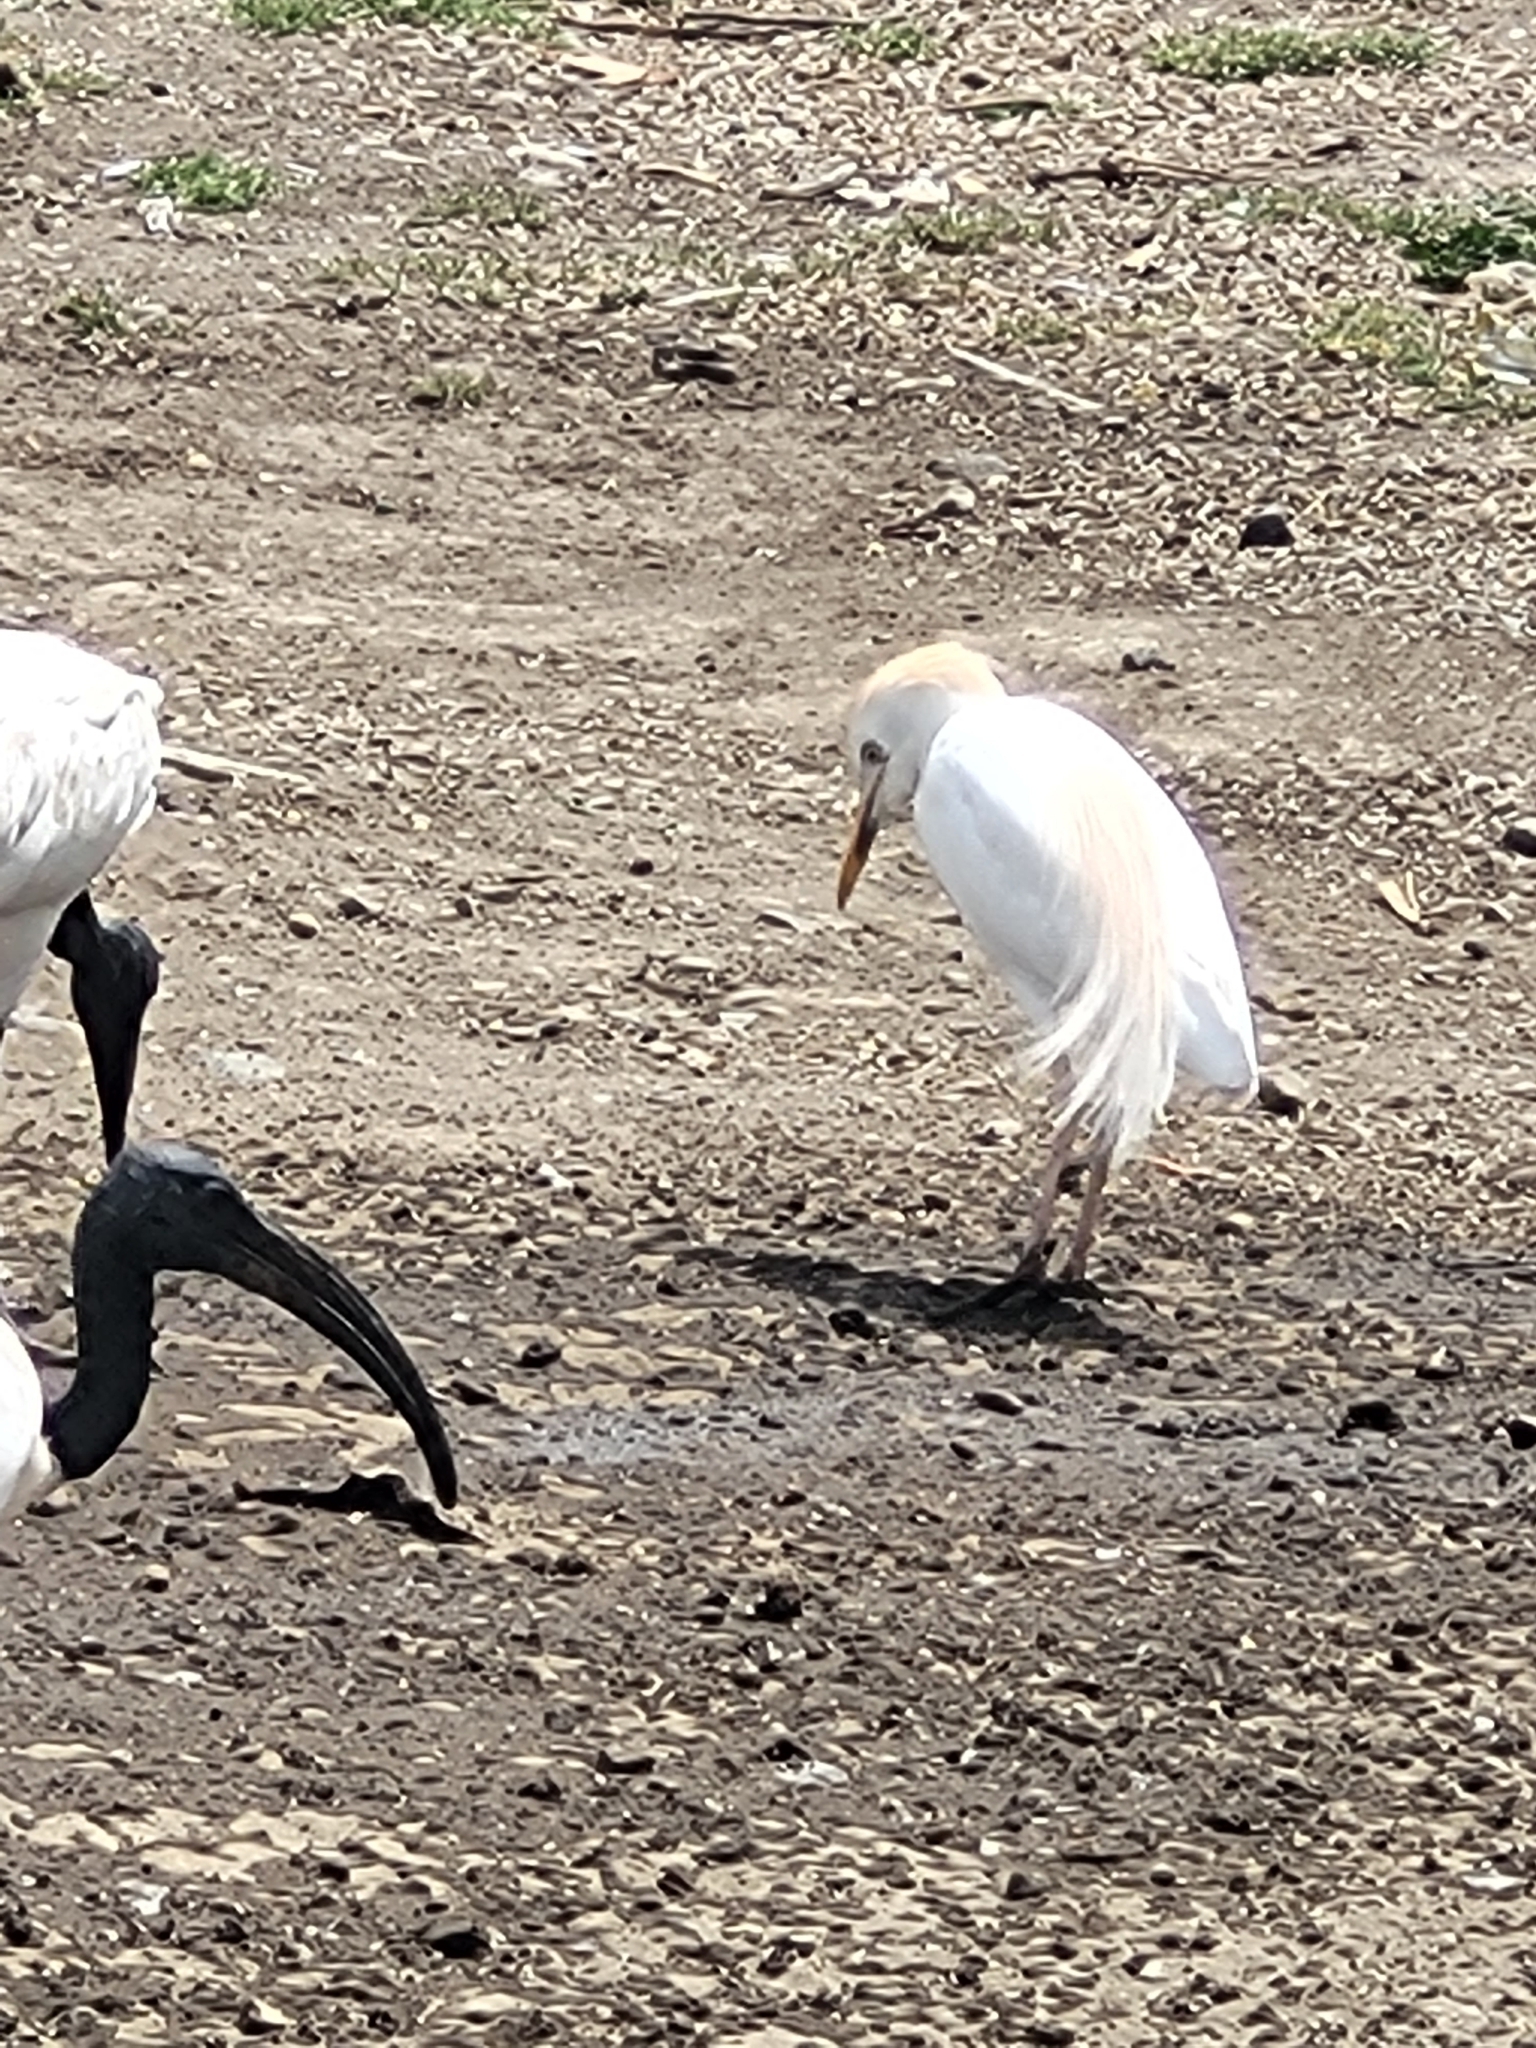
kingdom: Animalia
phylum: Chordata
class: Aves
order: Pelecaniformes
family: Ardeidae
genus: Bubulcus
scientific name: Bubulcus ibis
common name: Cattle egret
